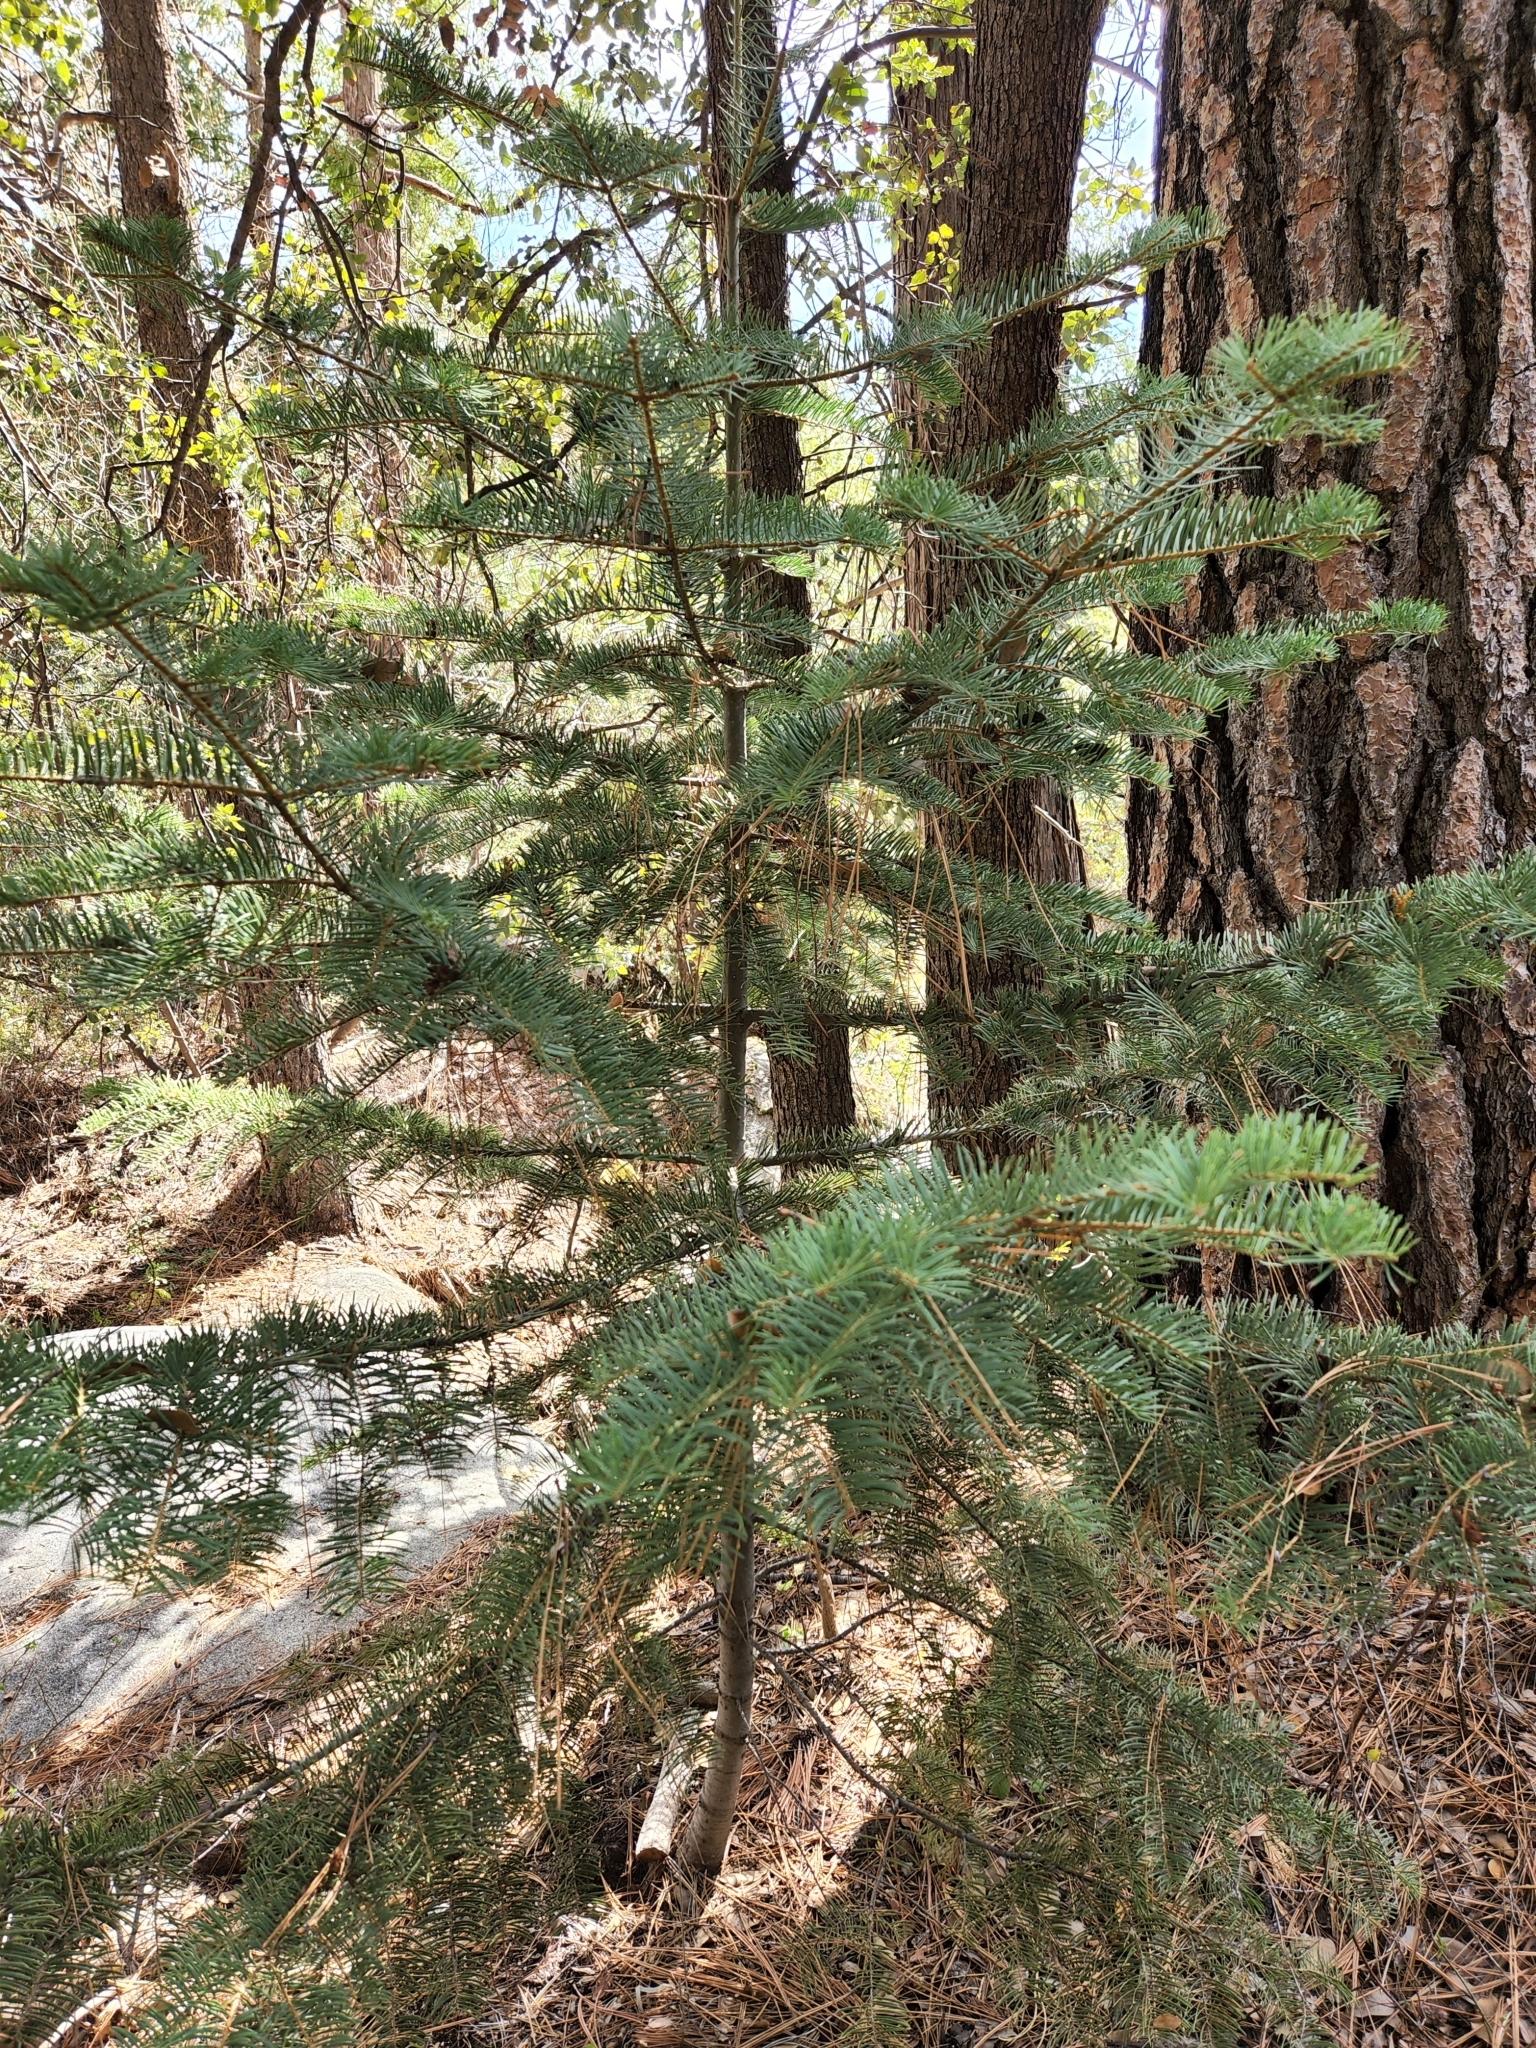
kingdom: Plantae
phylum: Tracheophyta
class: Pinopsida
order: Pinales
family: Pinaceae
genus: Abies
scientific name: Abies concolor
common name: Colorado fir
